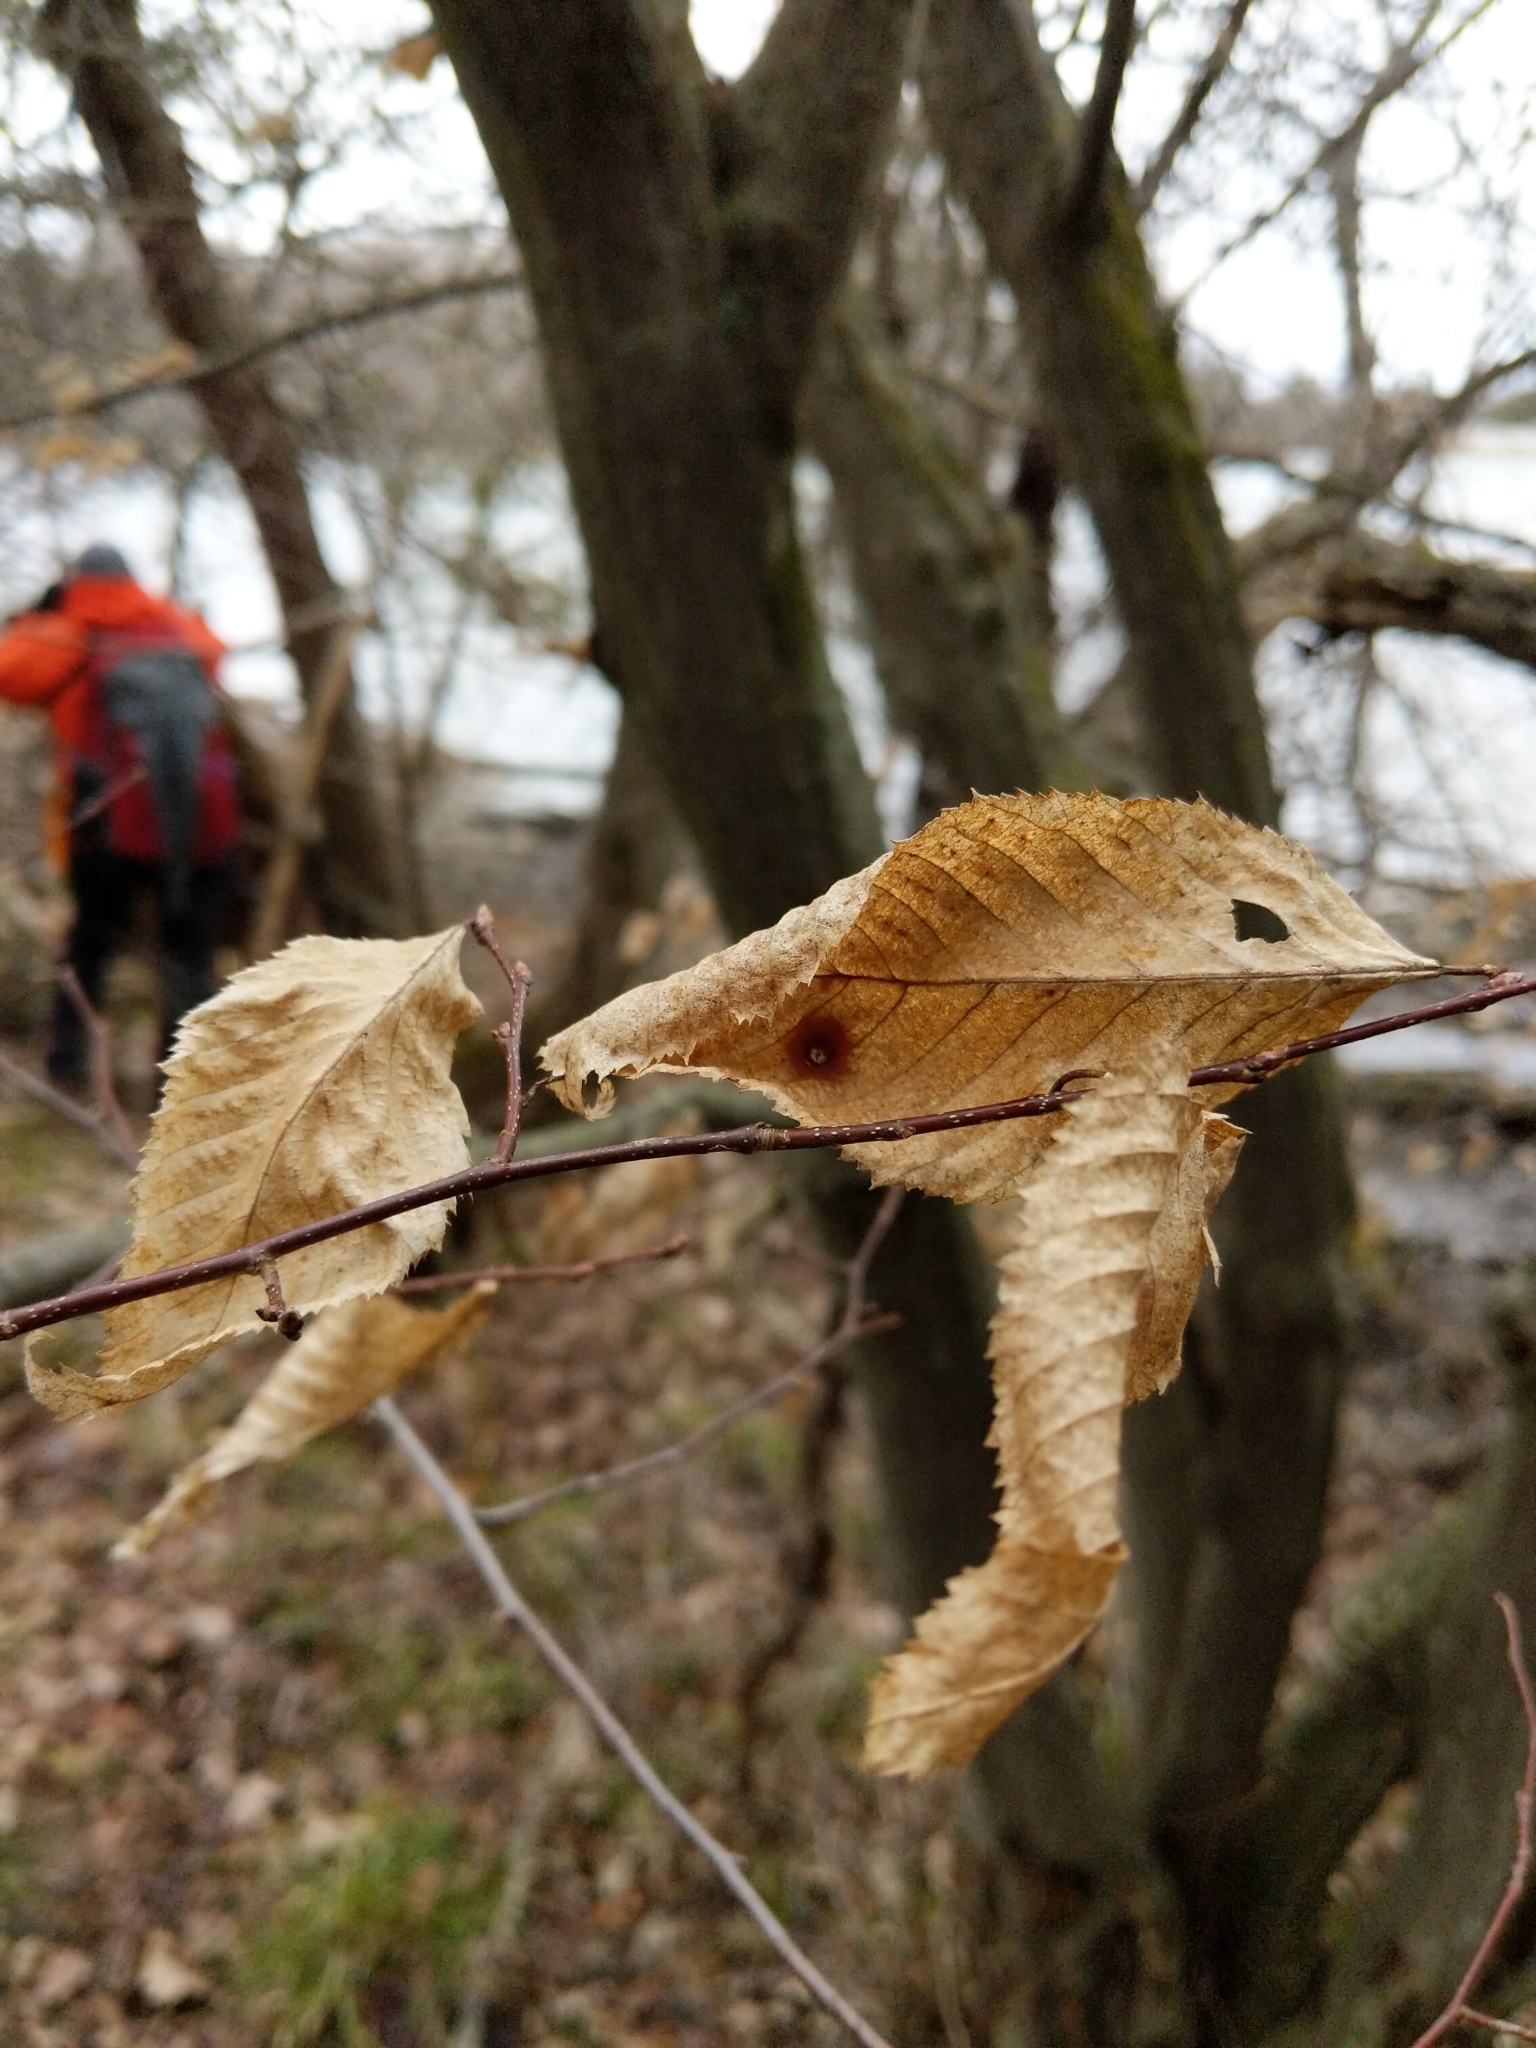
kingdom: Plantae
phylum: Tracheophyta
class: Magnoliopsida
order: Fagales
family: Betulaceae
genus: Carpinus
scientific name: Carpinus caroliniana
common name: American hornbeam
